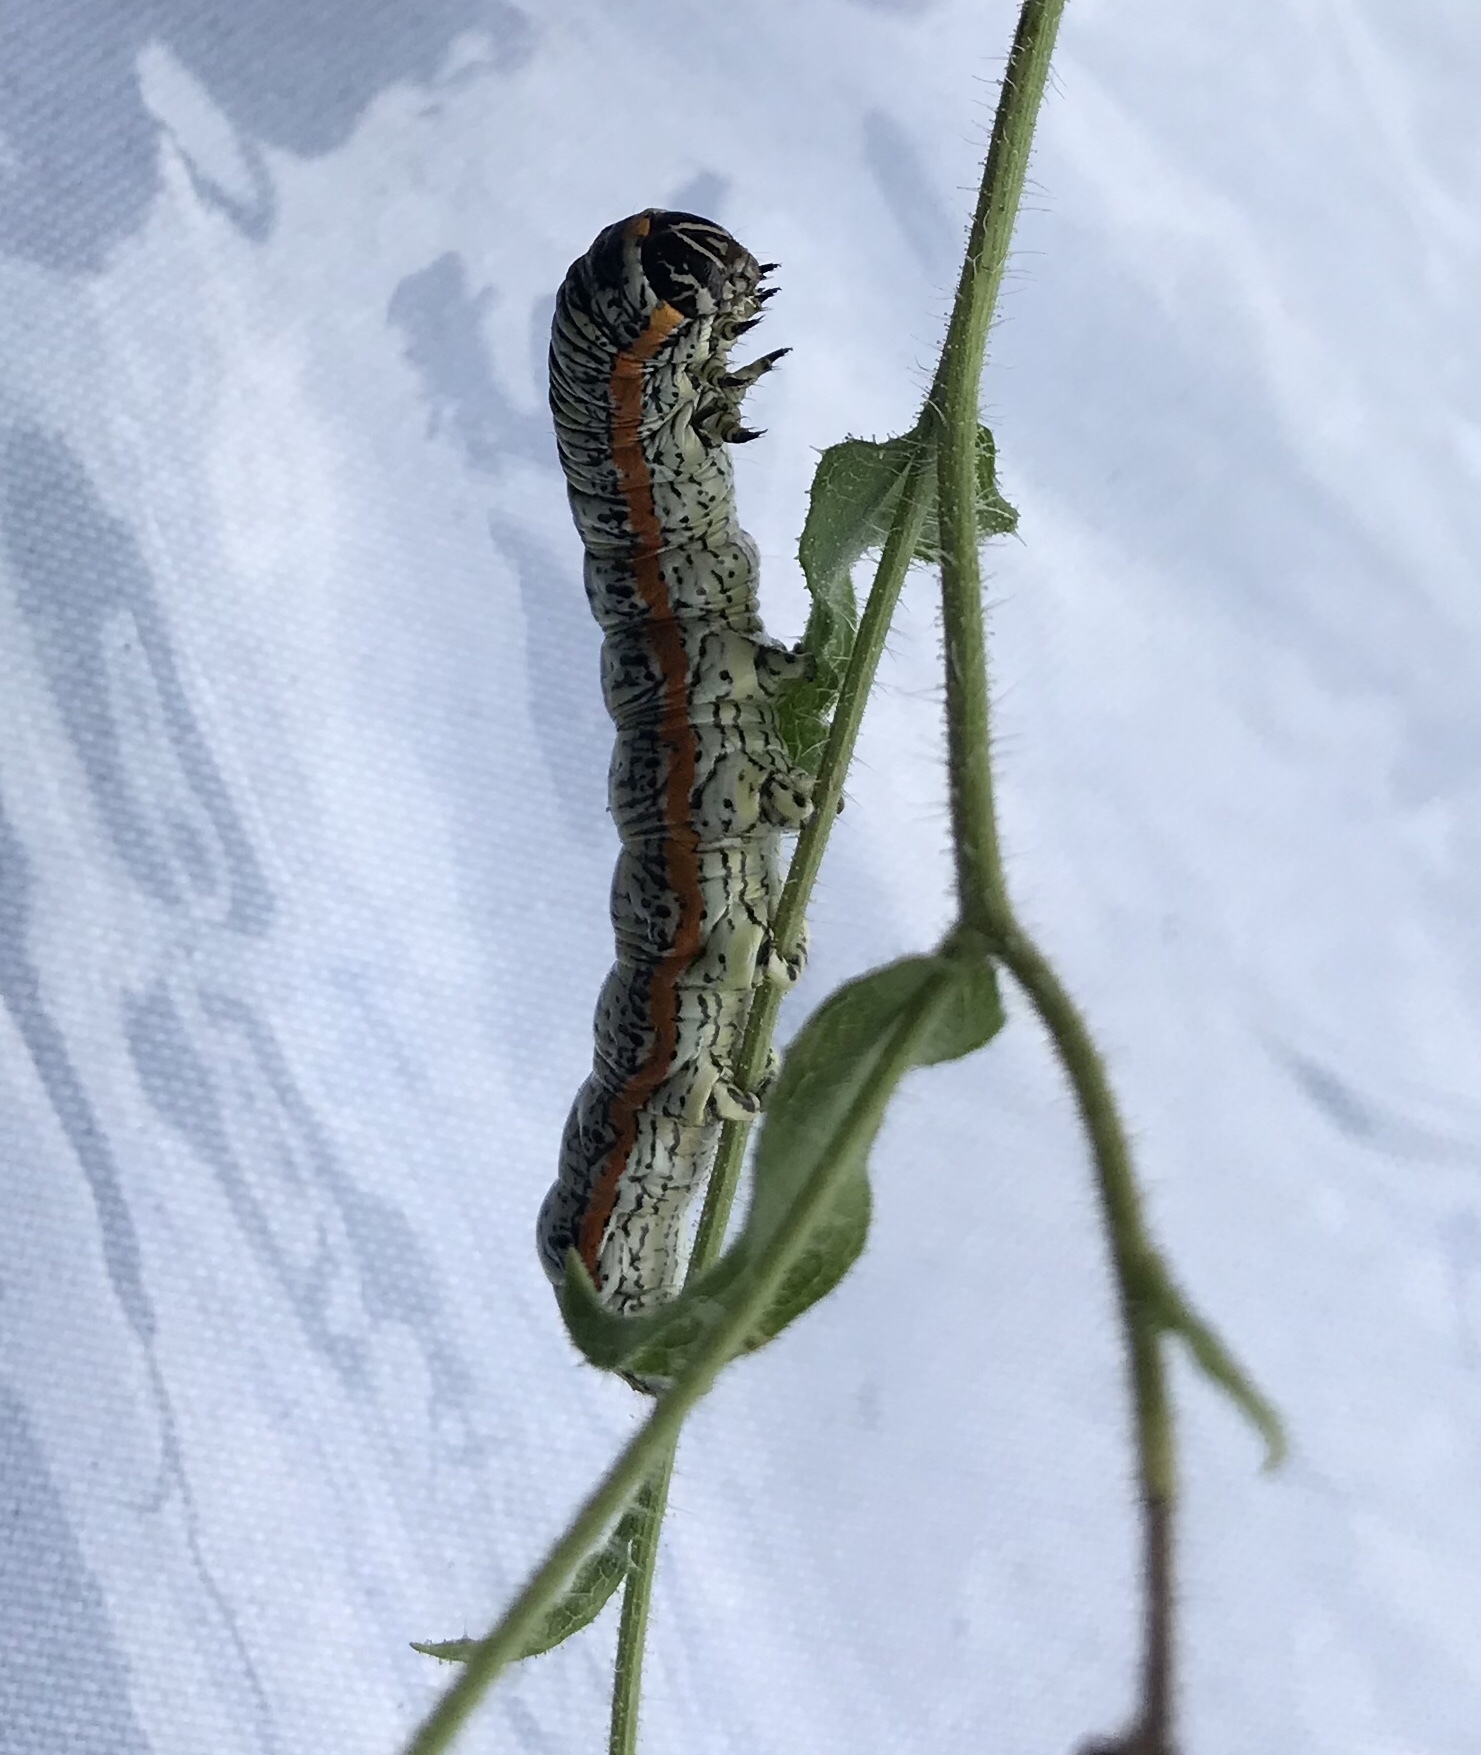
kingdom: Animalia
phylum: Arthropoda
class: Insecta
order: Lepidoptera
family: Noctuidae
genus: Cucullia
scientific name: Cucullia lethe
